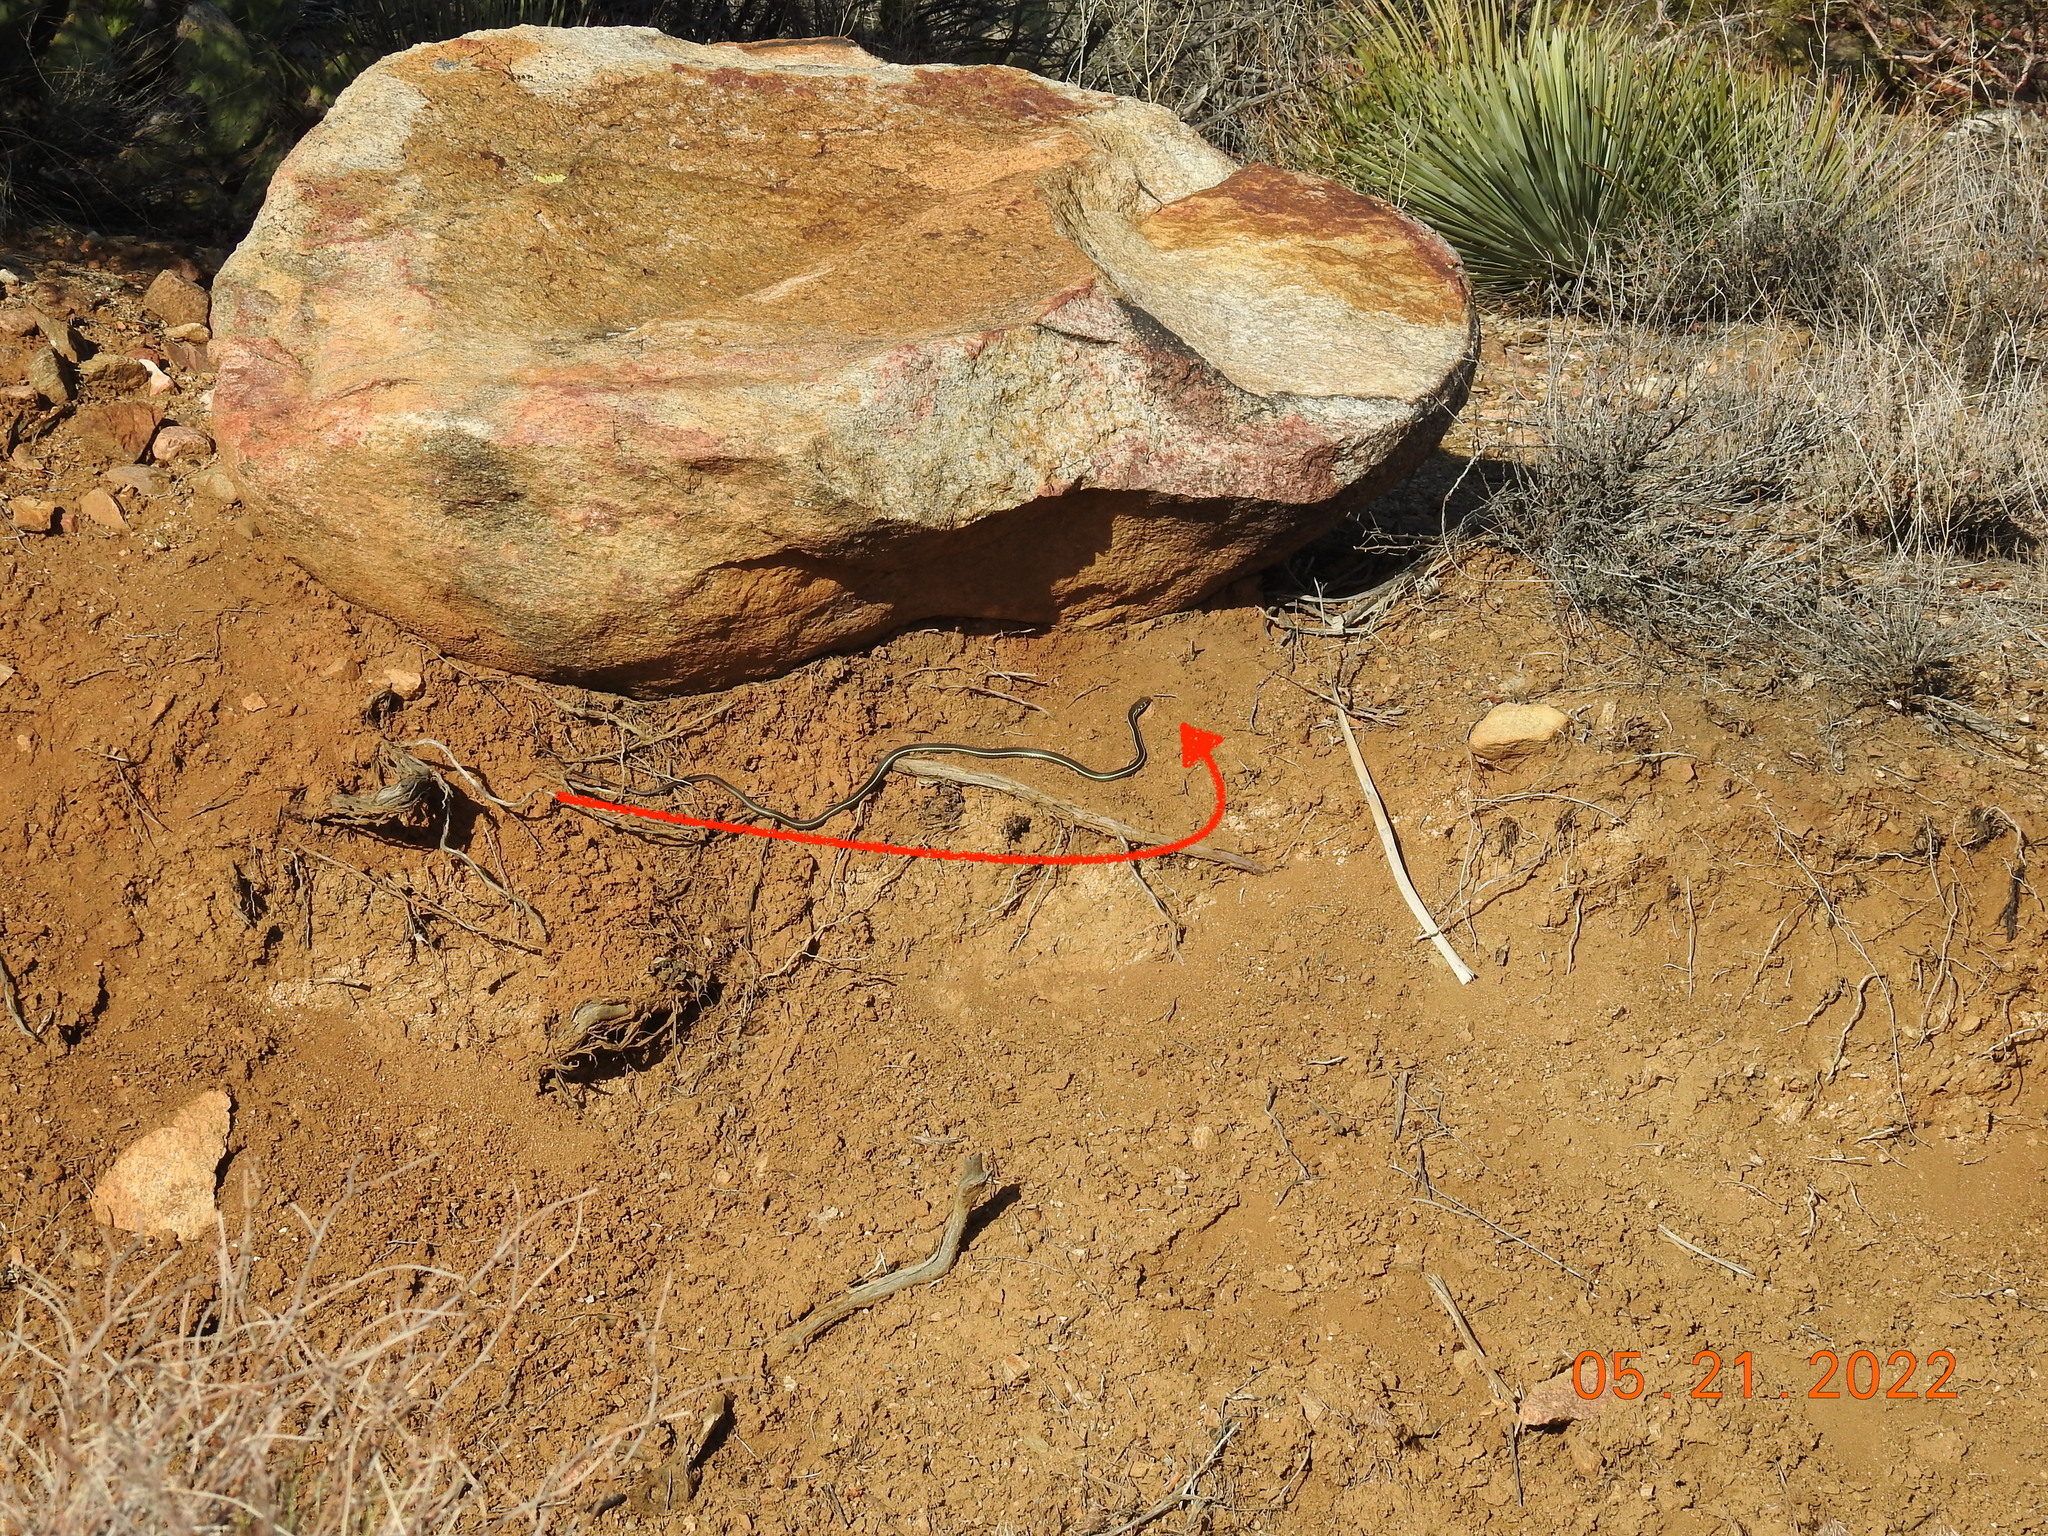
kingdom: Animalia
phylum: Chordata
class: Squamata
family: Colubridae
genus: Masticophis
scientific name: Masticophis lateralis
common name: Striped racer
